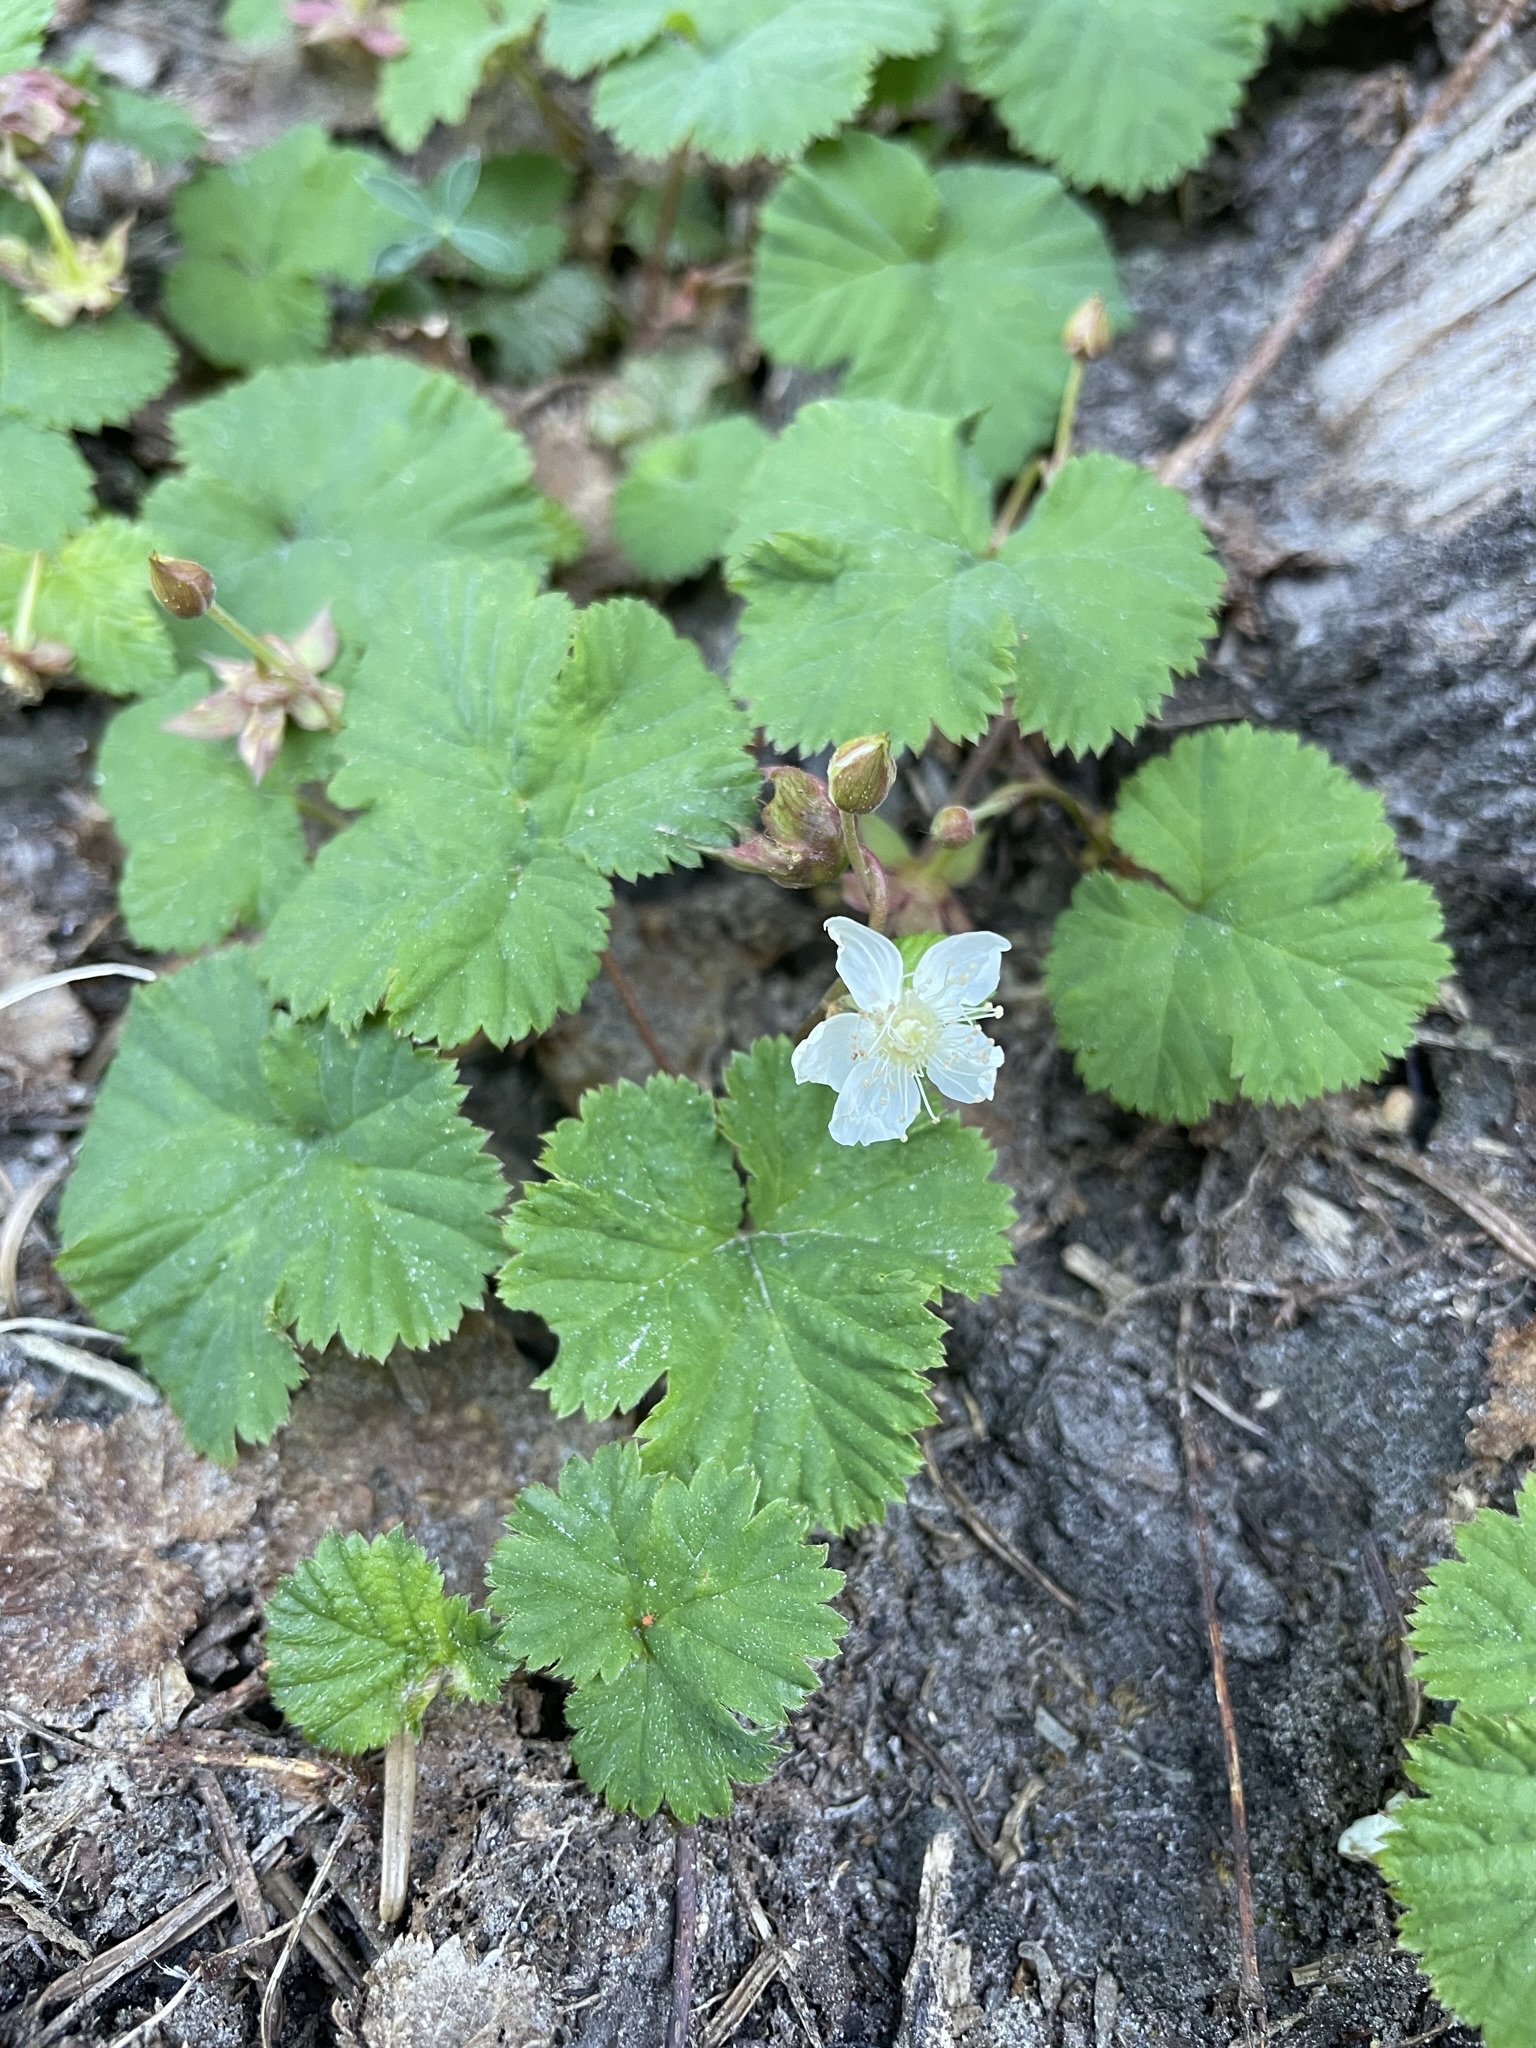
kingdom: Plantae
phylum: Tracheophyta
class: Magnoliopsida
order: Rosales
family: Rosaceae
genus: Rubus
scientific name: Rubus lasiococcus
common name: Dwarf bramble
